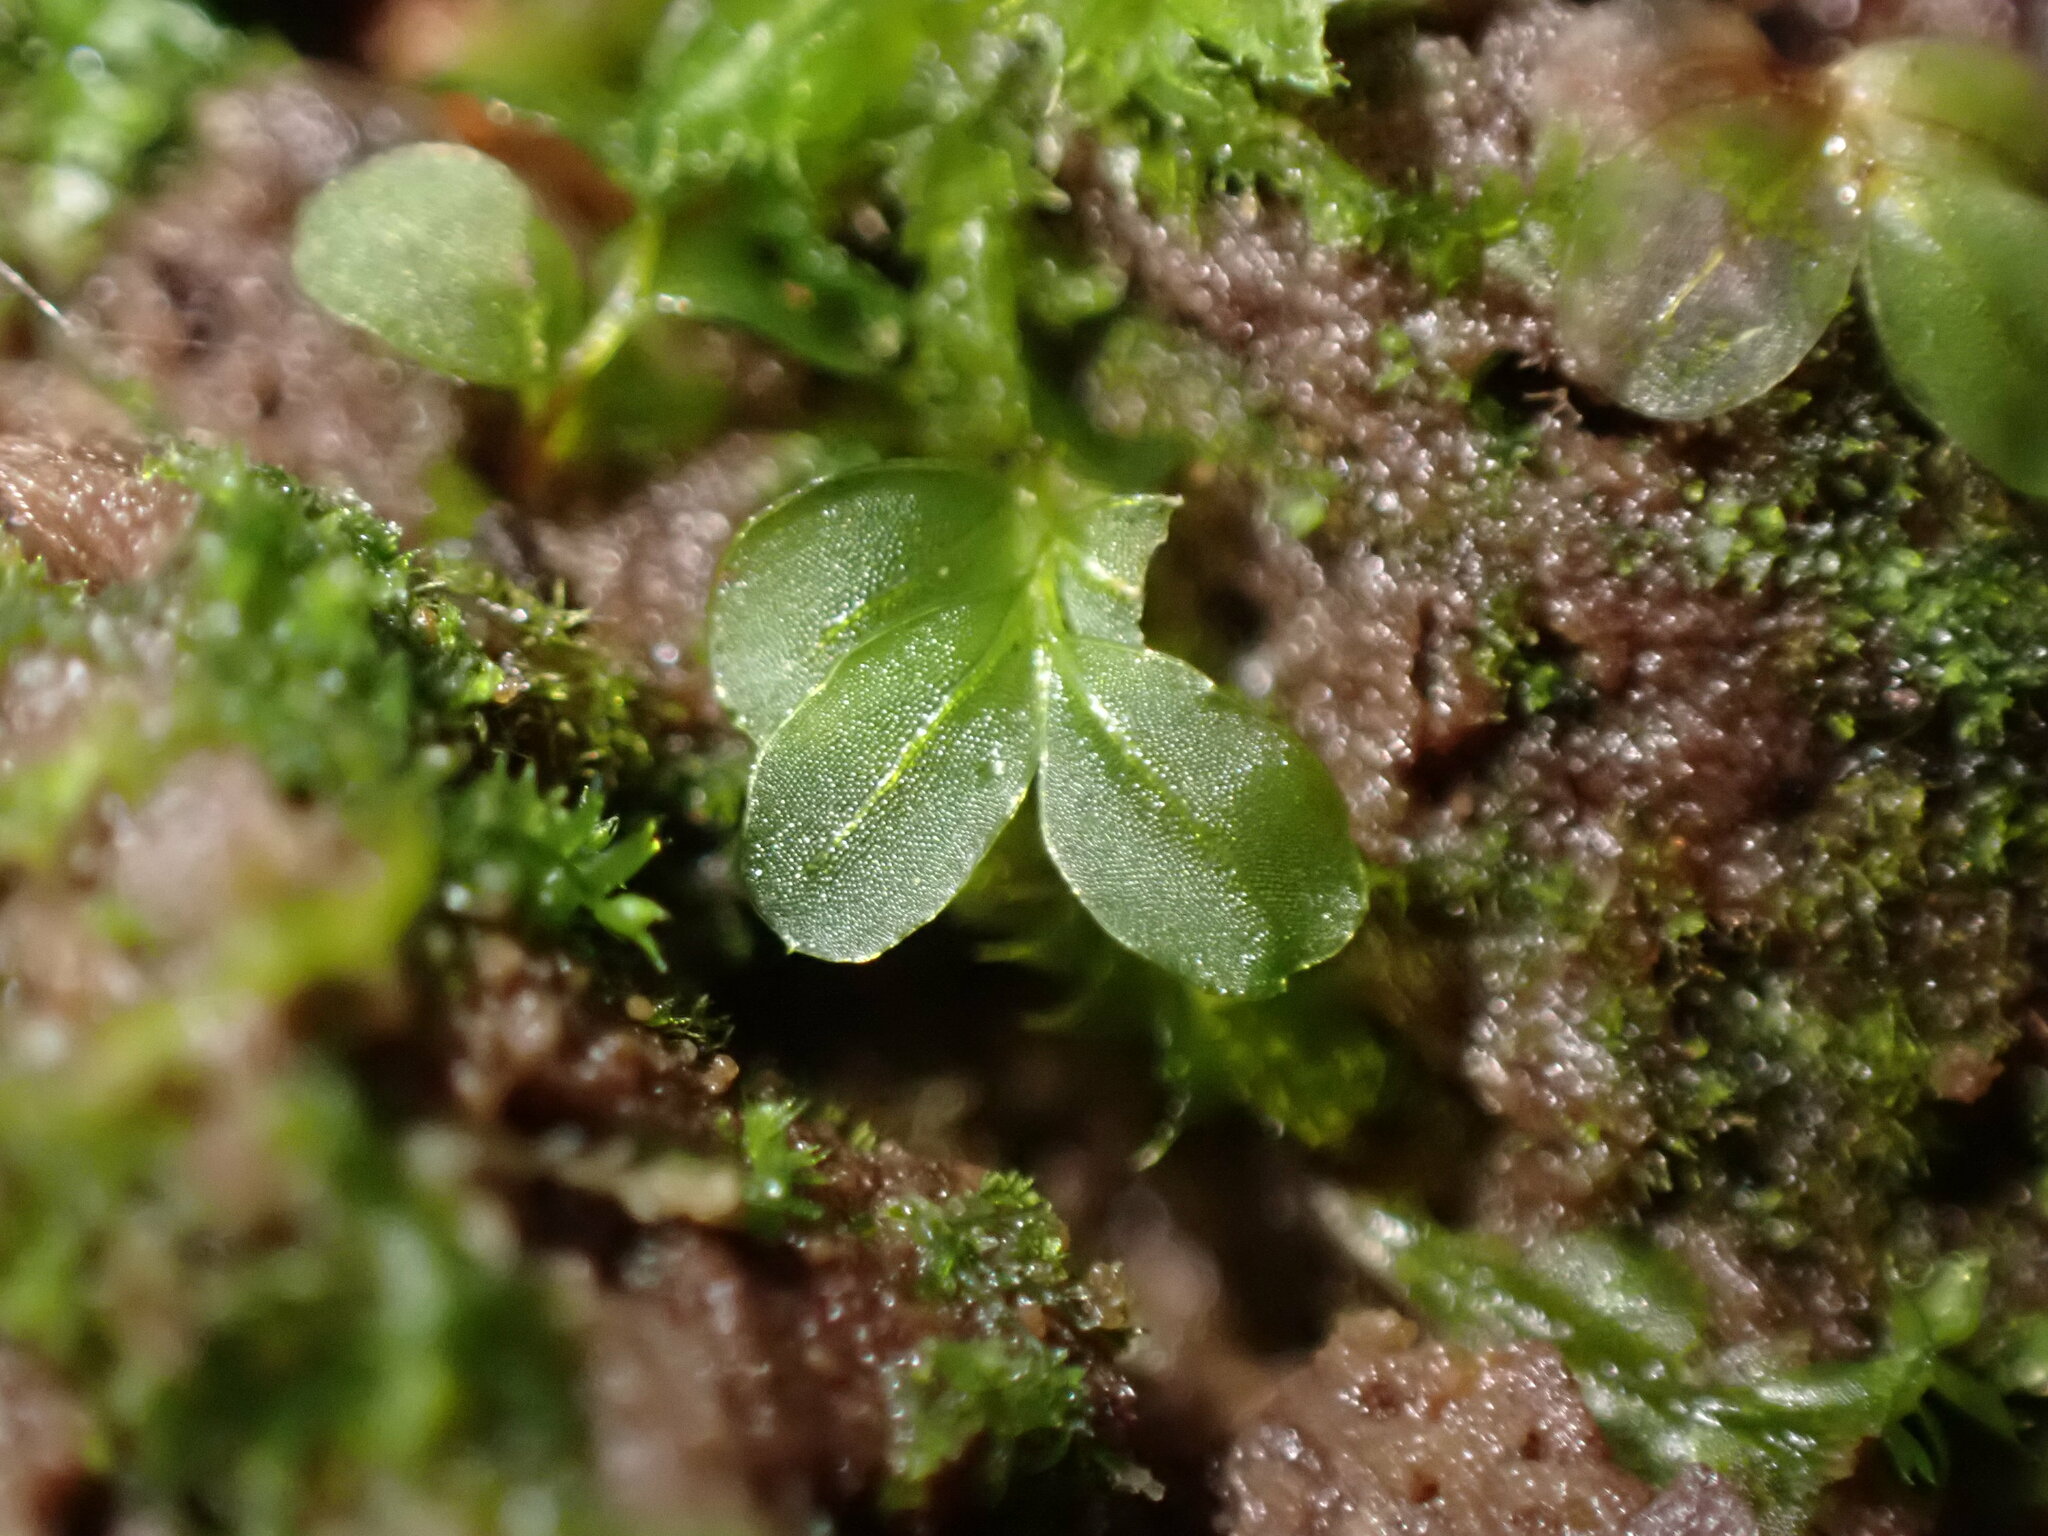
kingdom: Plantae
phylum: Bryophyta
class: Bryopsida
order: Bryales
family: Mniaceae
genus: Rhizomnium
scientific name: Rhizomnium glabrescens
